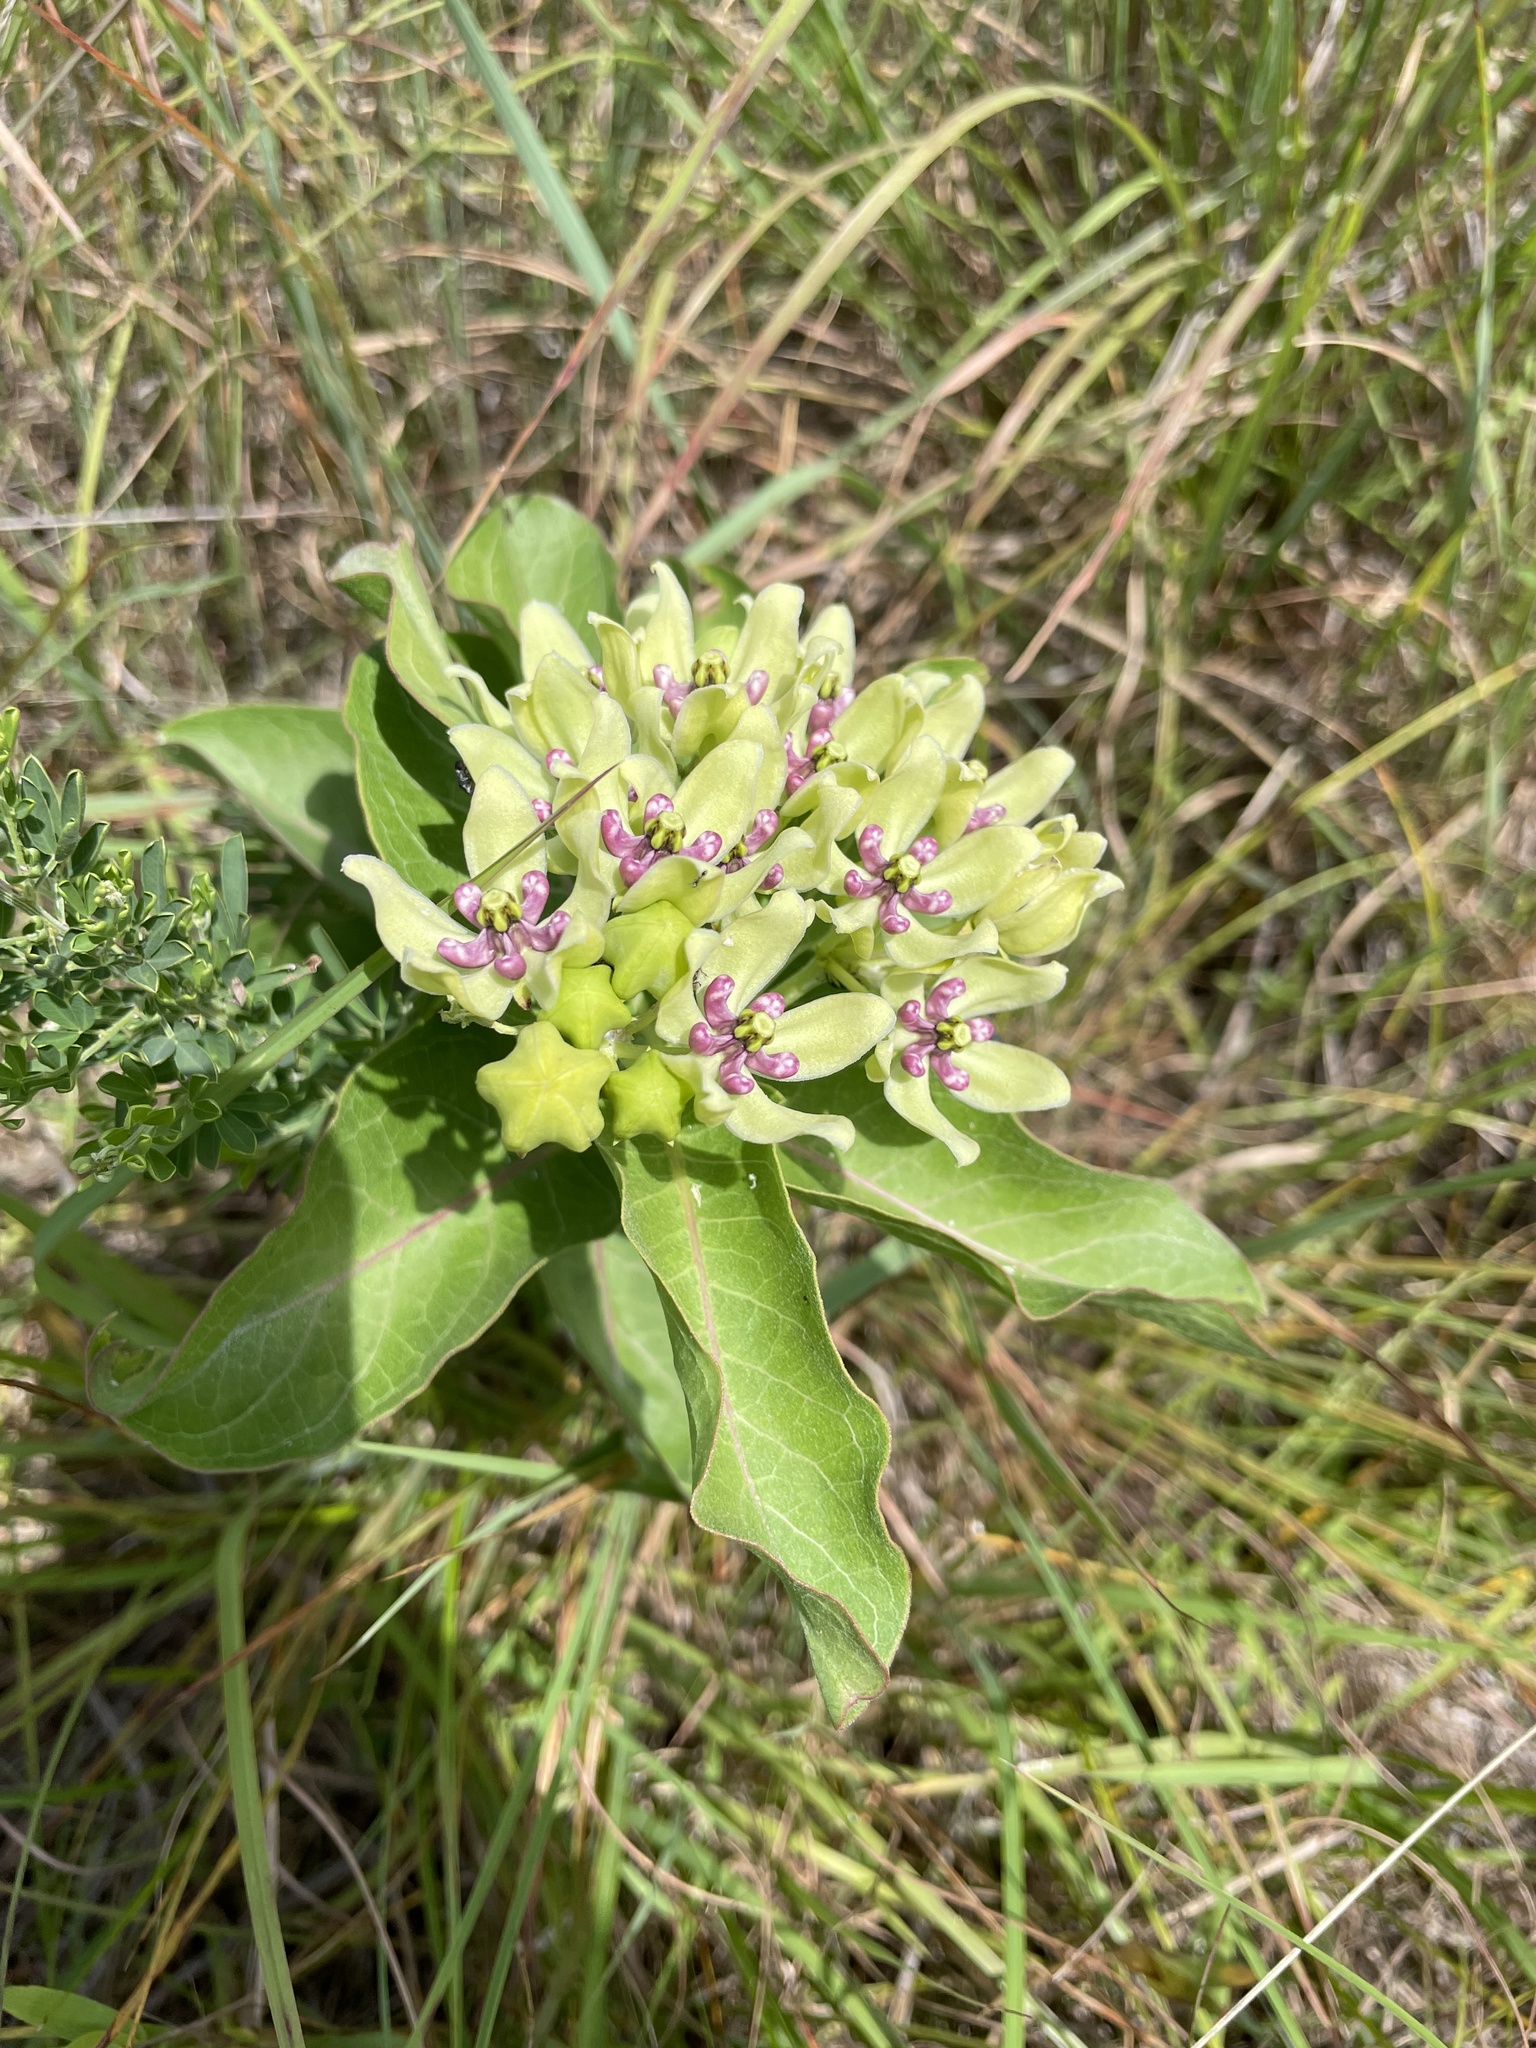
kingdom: Plantae
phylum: Tracheophyta
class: Magnoliopsida
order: Gentianales
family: Apocynaceae
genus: Asclepias
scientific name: Asclepias viridis
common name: Antelope-horns
